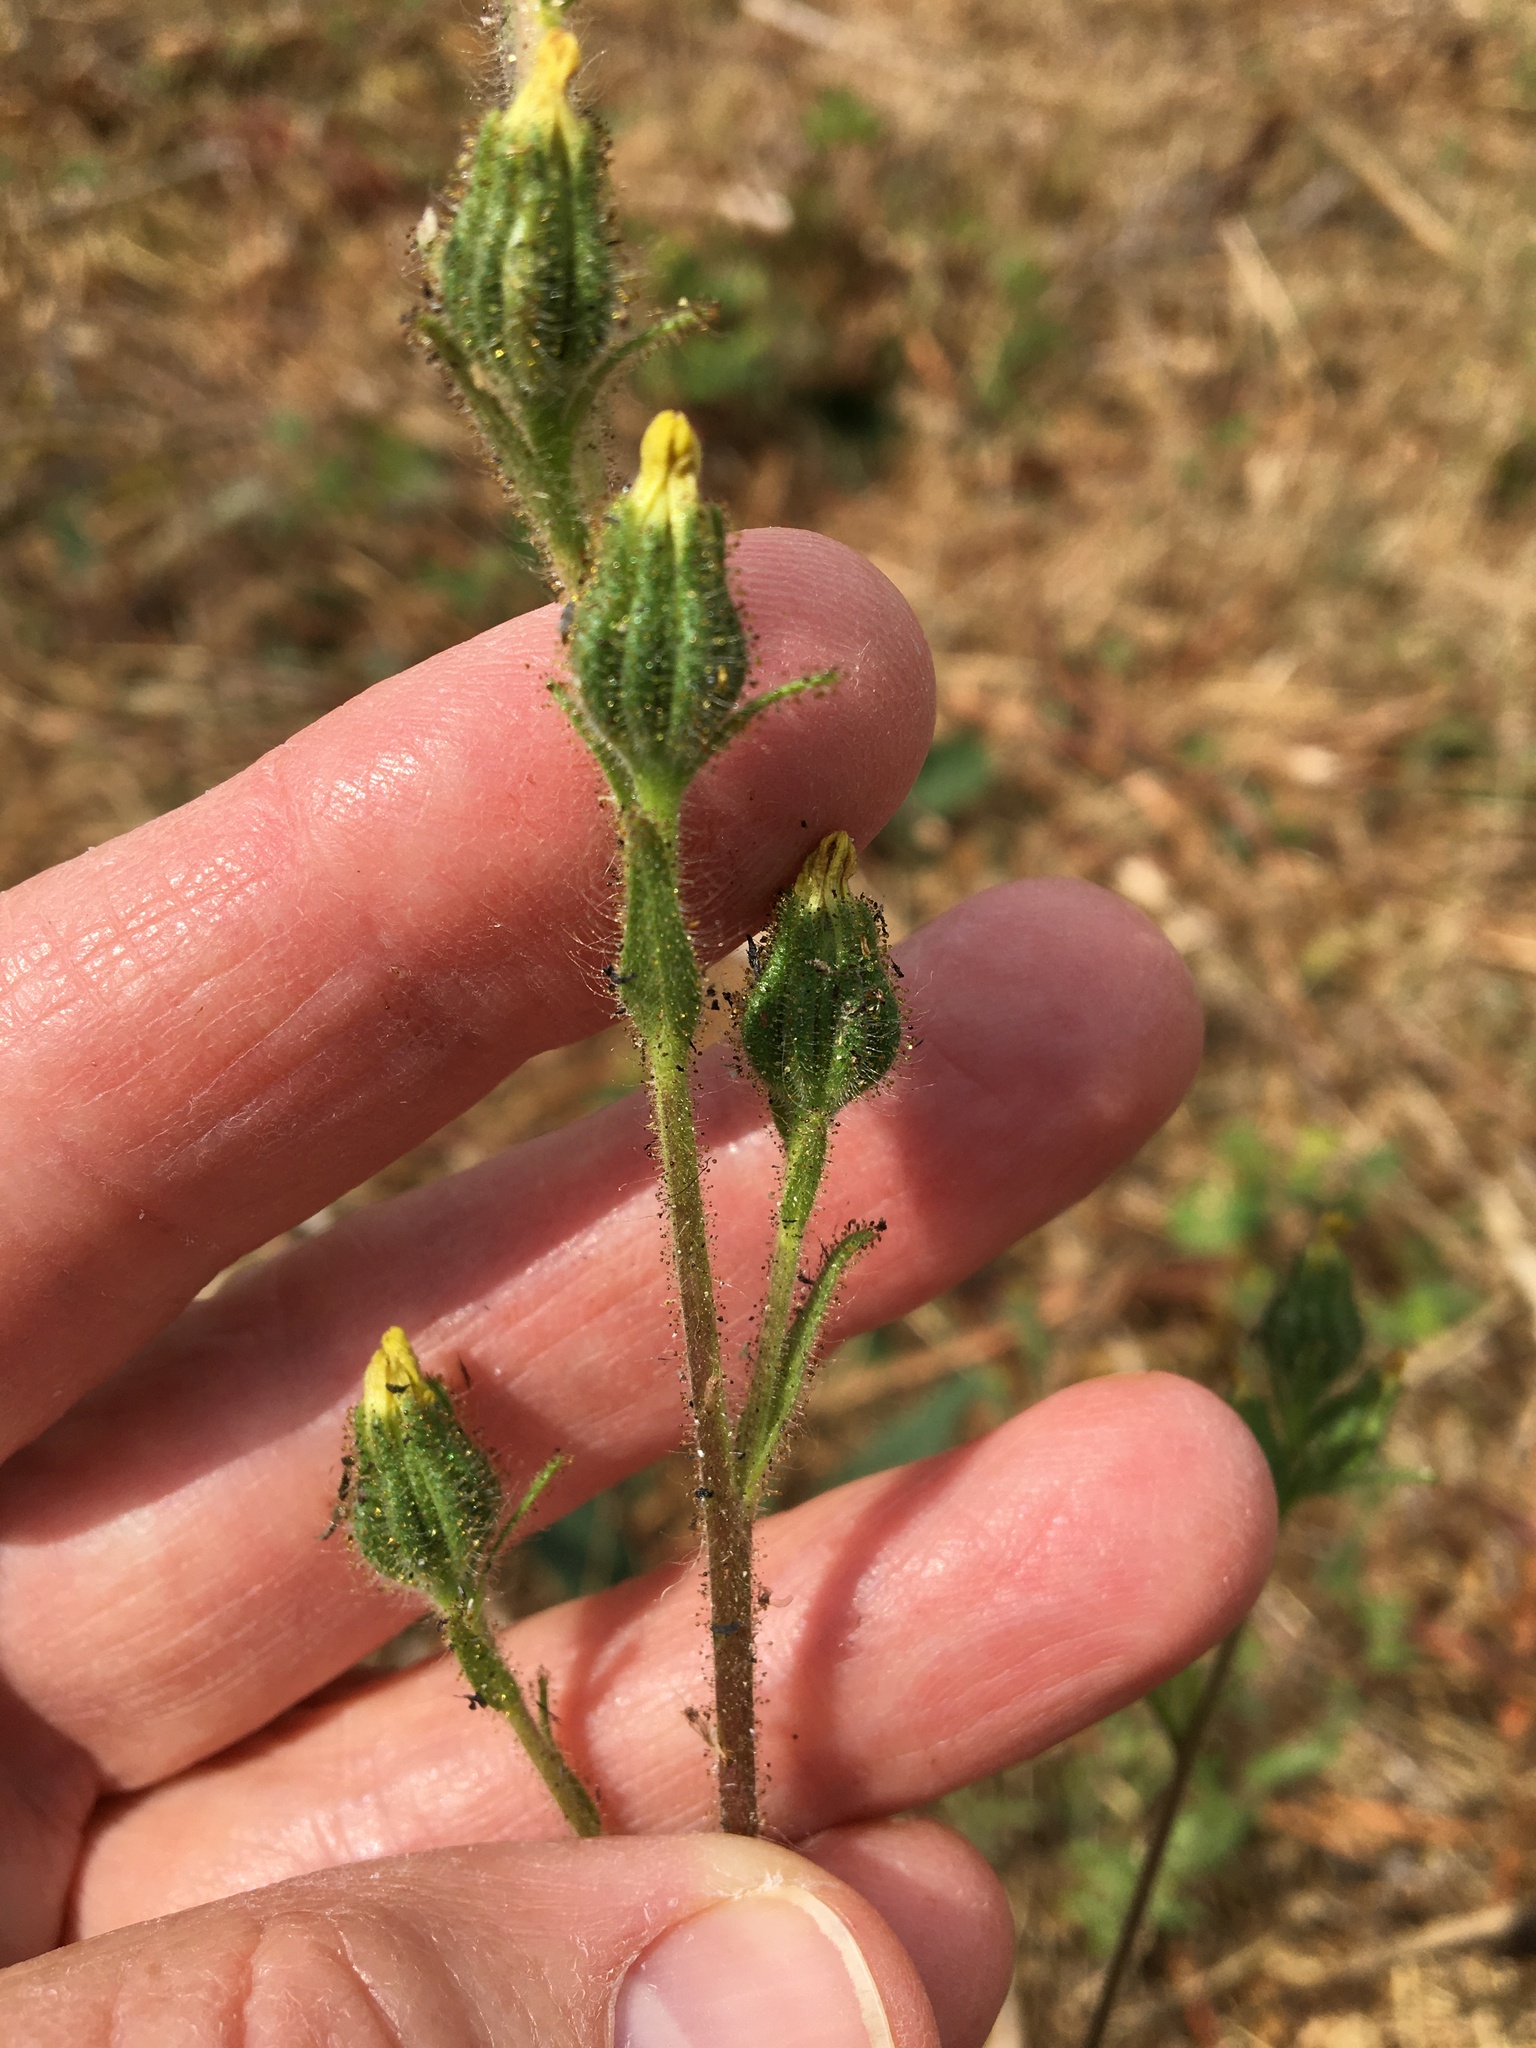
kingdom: Plantae
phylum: Tracheophyta
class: Magnoliopsida
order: Asterales
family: Asteraceae
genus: Madia
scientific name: Madia glomerata
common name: Mountain tarweed
